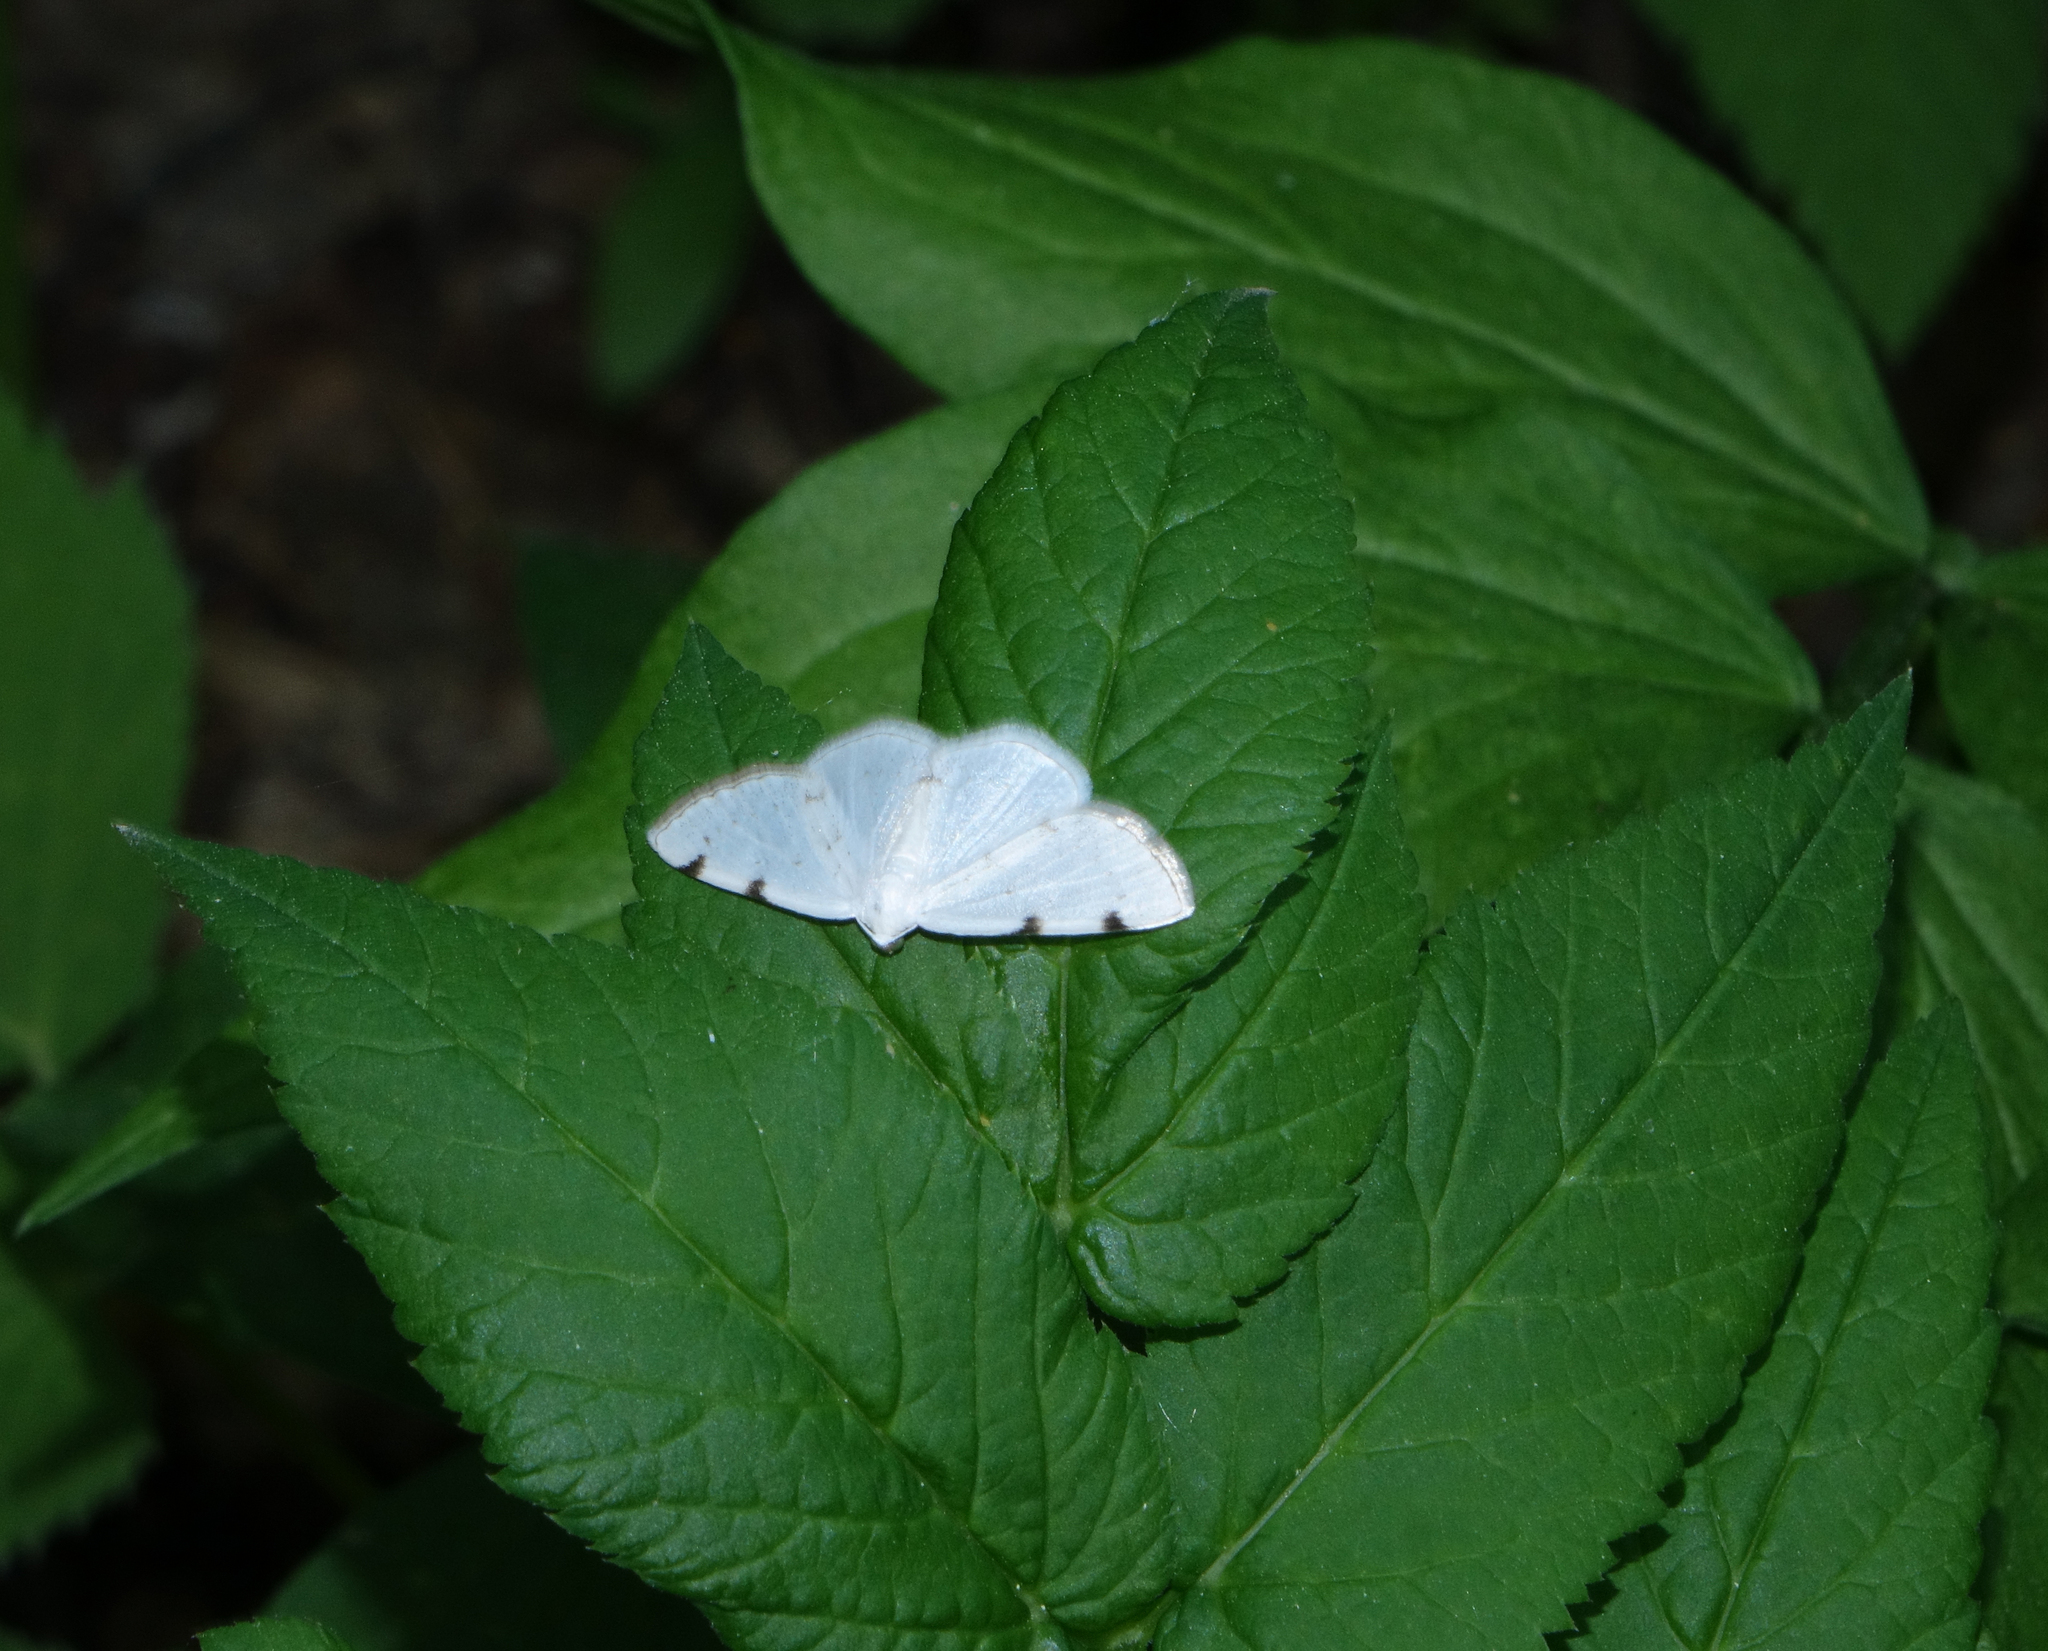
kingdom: Plantae
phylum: Tracheophyta
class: Magnoliopsida
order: Apiales
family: Apiaceae
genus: Aegopodium
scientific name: Aegopodium podagraria
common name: Ground-elder
